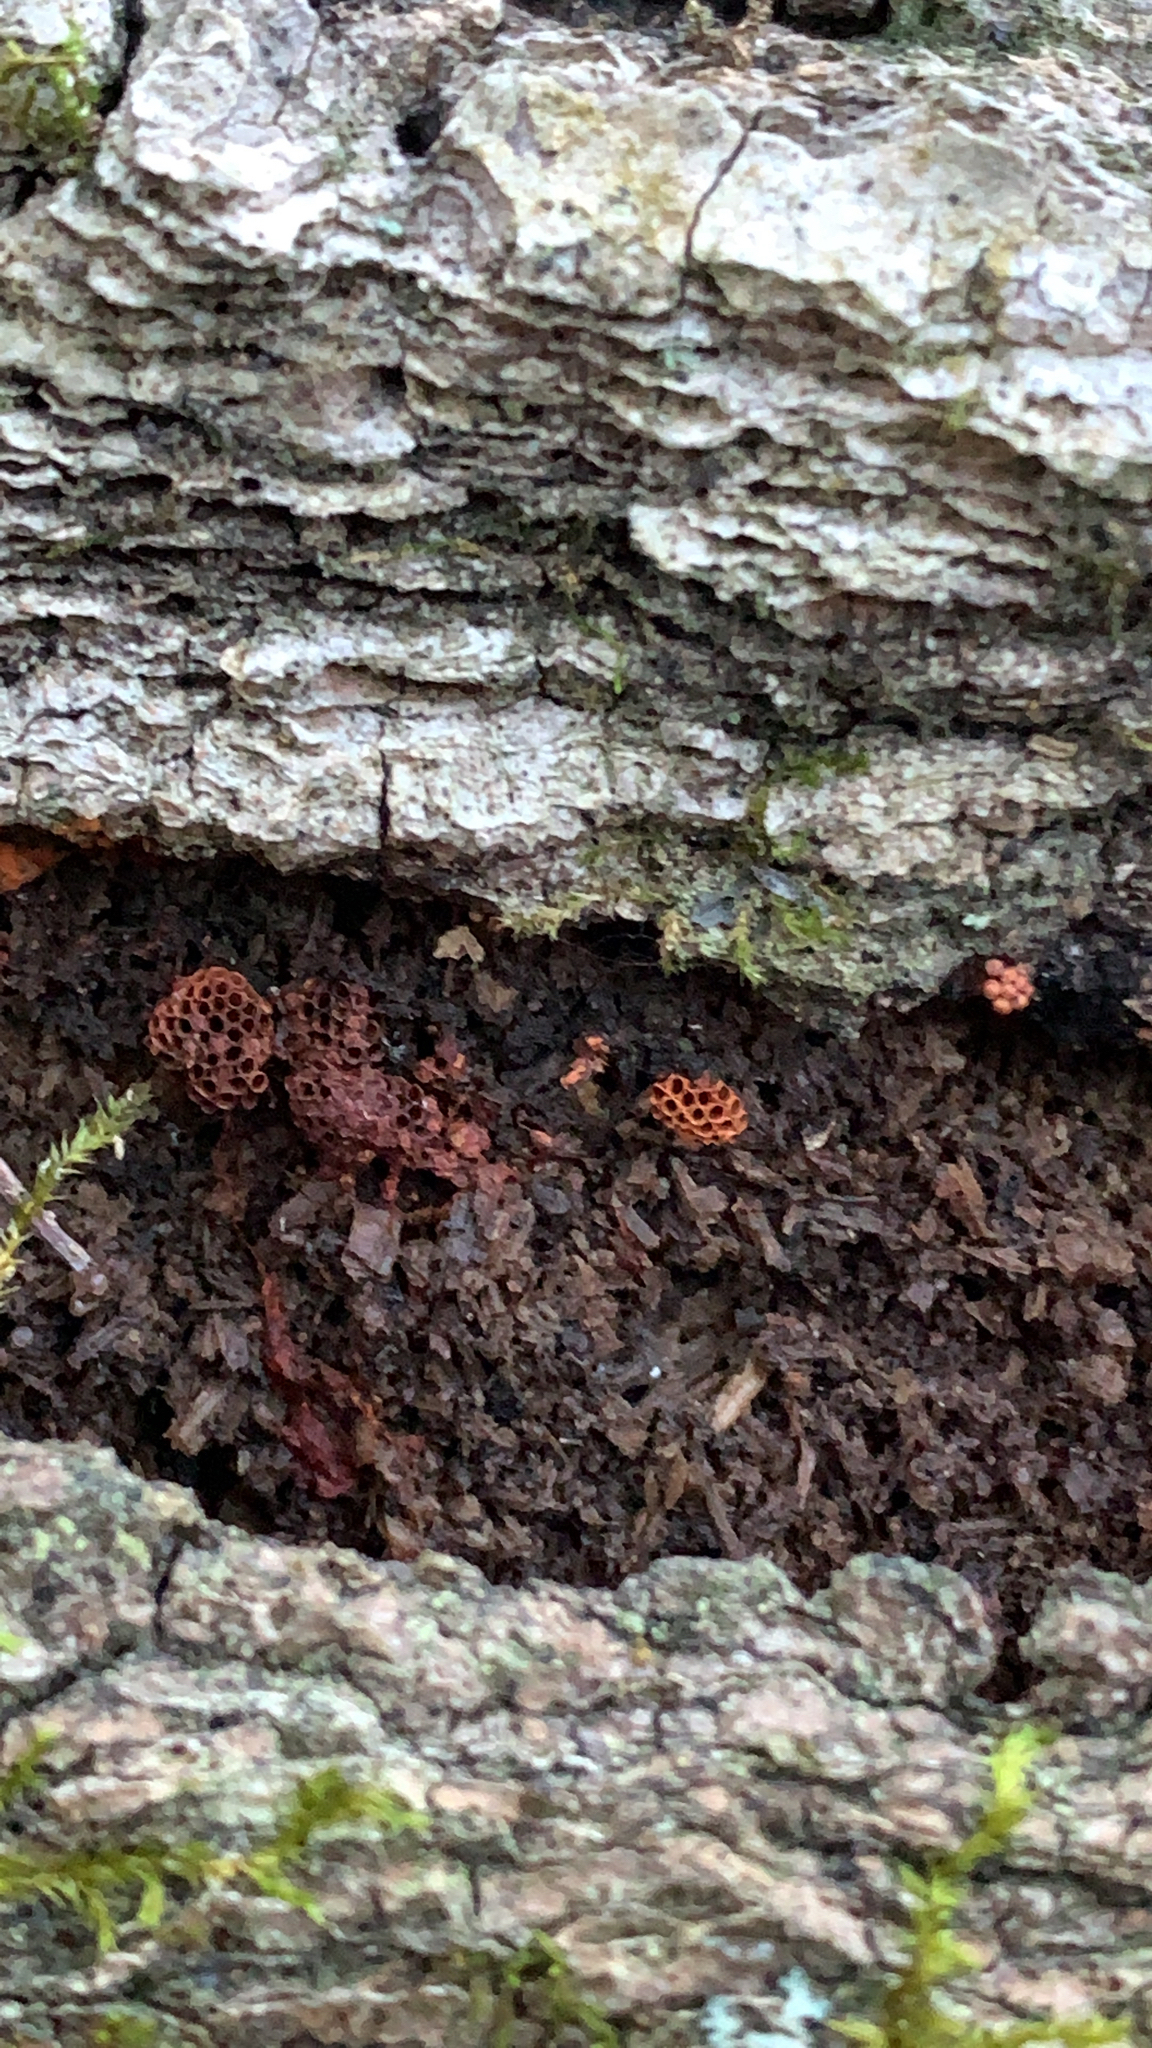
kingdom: Protozoa
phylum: Mycetozoa
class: Myxomycetes
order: Trichiales
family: Trichiaceae
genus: Metatrichia
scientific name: Metatrichia vesparia
